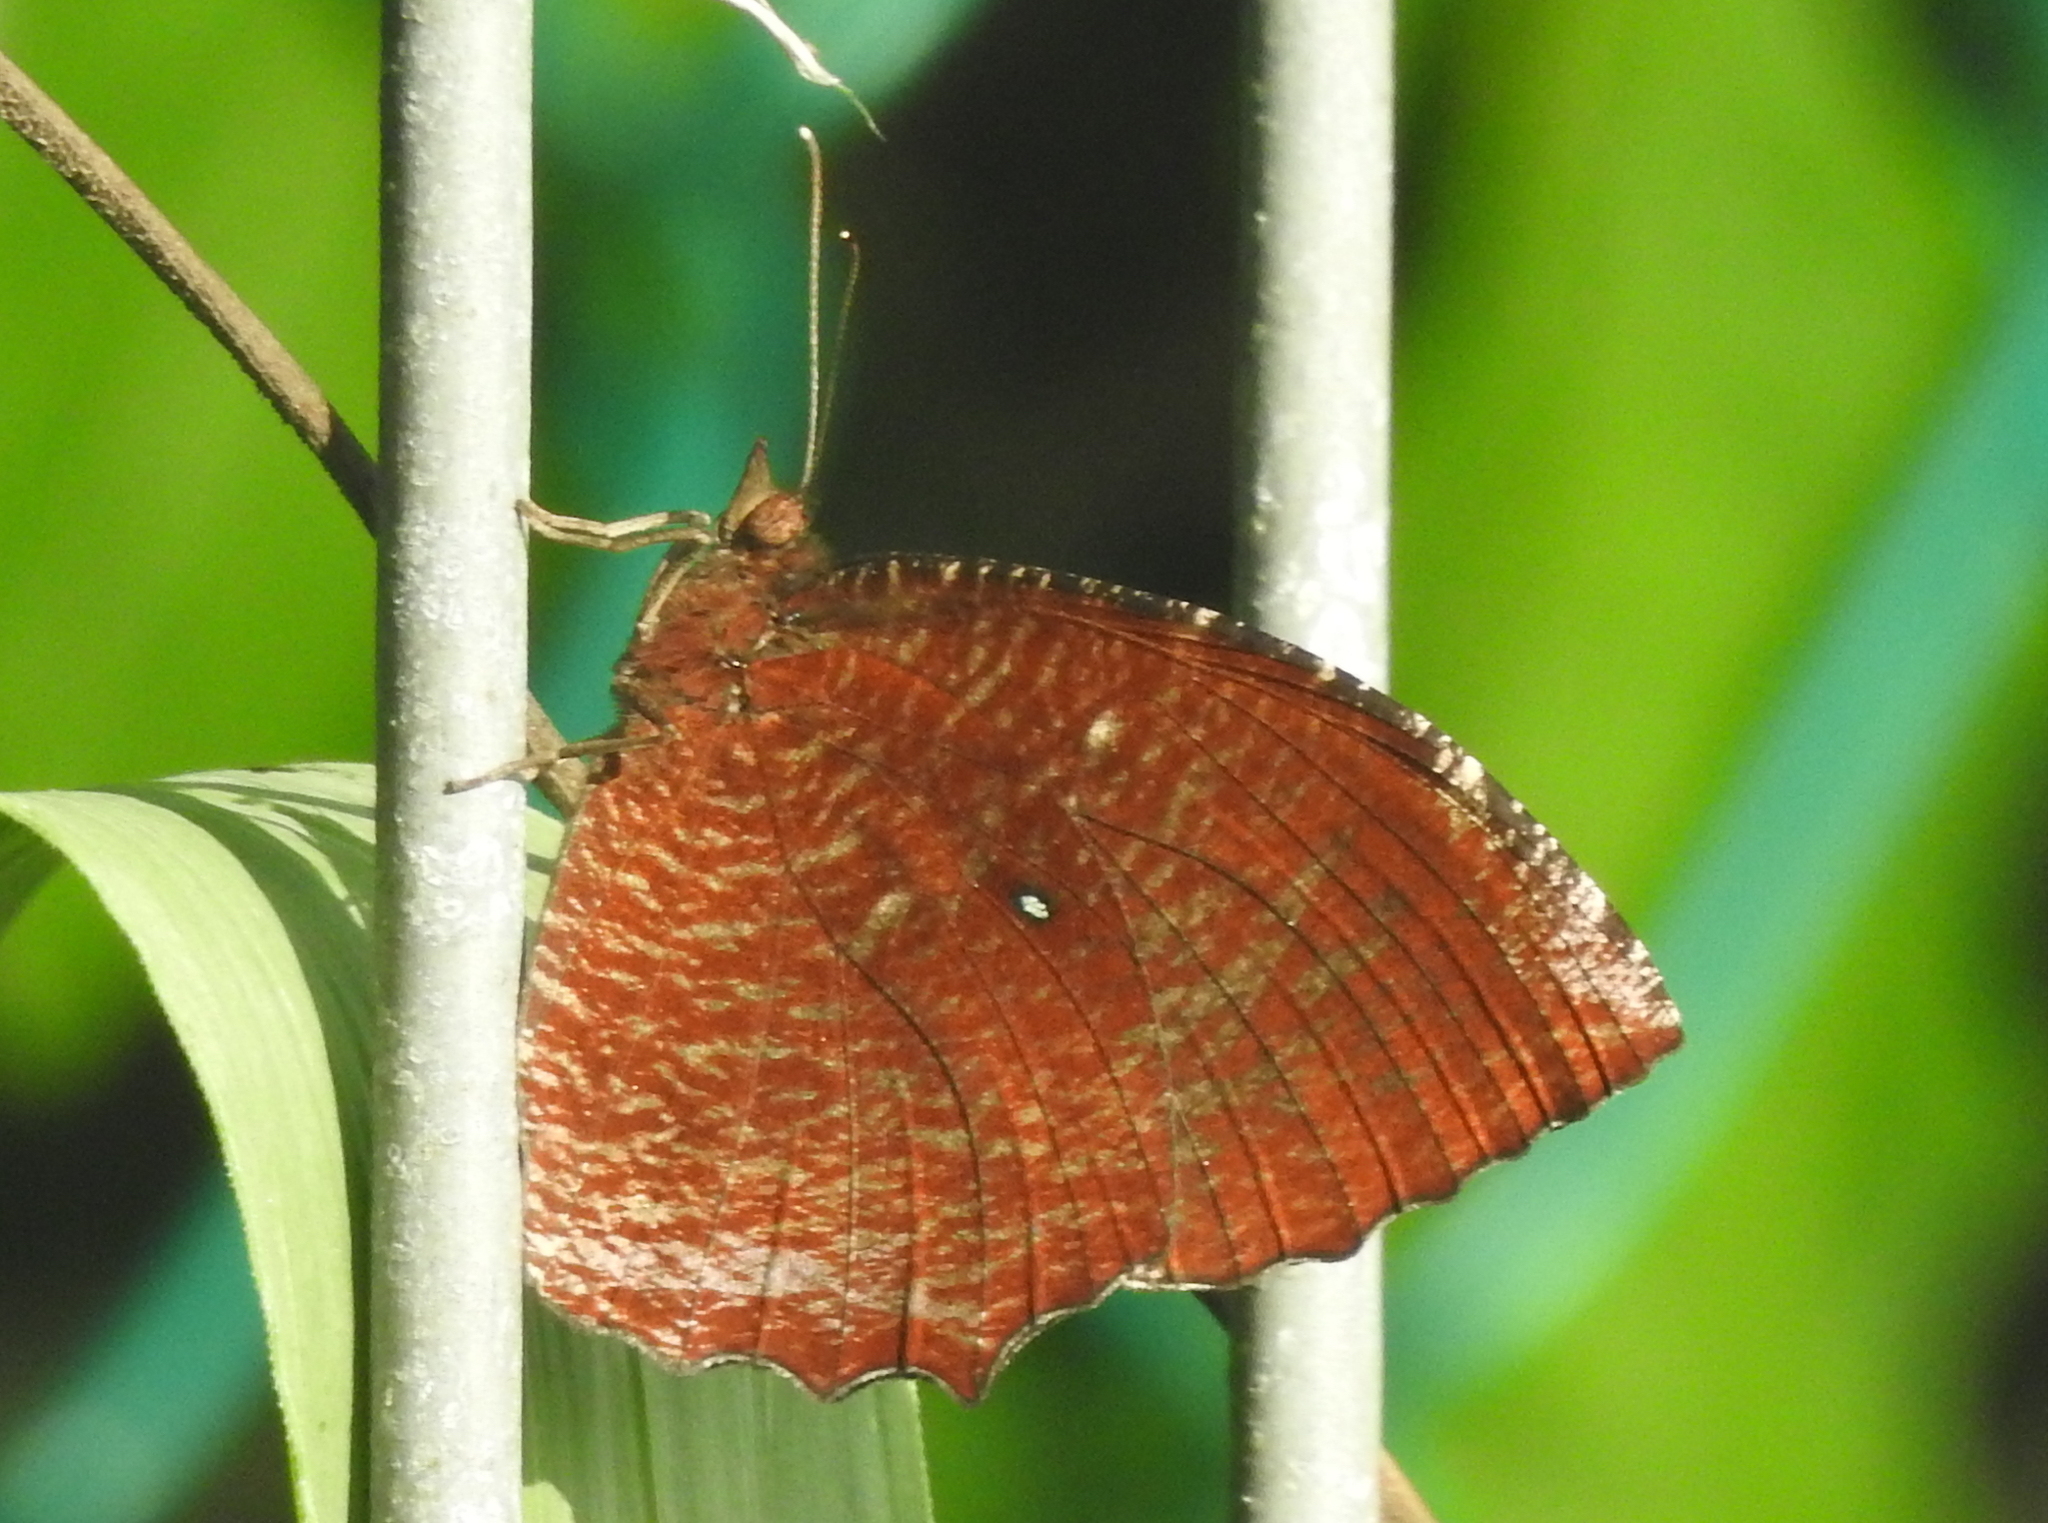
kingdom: Animalia
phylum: Arthropoda
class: Insecta
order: Lepidoptera
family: Nymphalidae
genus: Elymnias
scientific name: Elymnias hypermnestra
